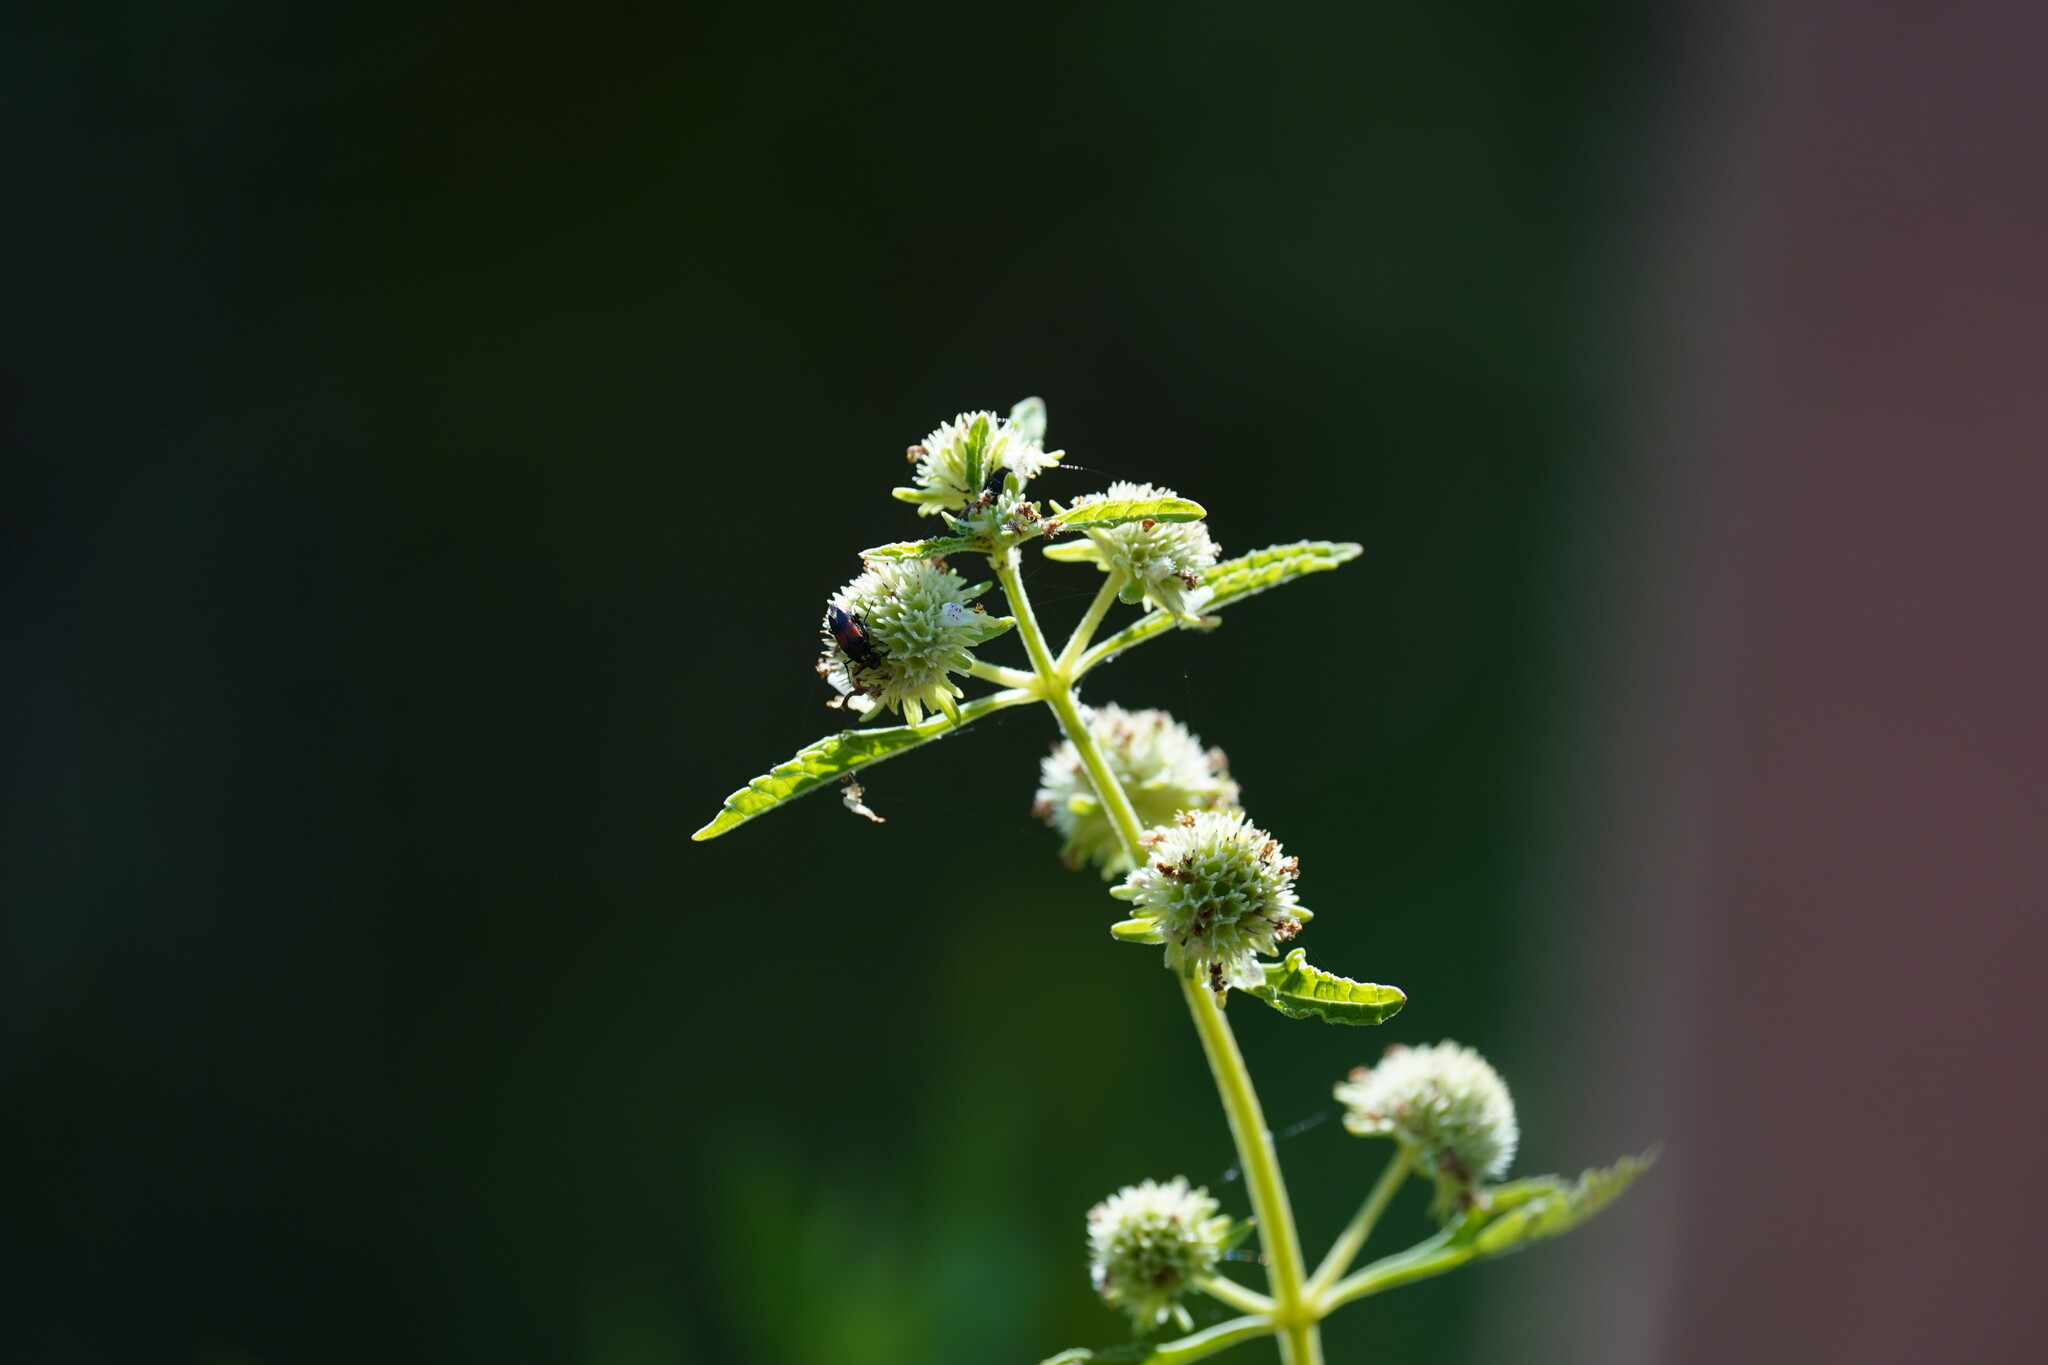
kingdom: Plantae
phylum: Tracheophyta
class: Magnoliopsida
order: Lamiales
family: Lamiaceae
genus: Hyptis
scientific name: Hyptis alata
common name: Cluster bush-mint
